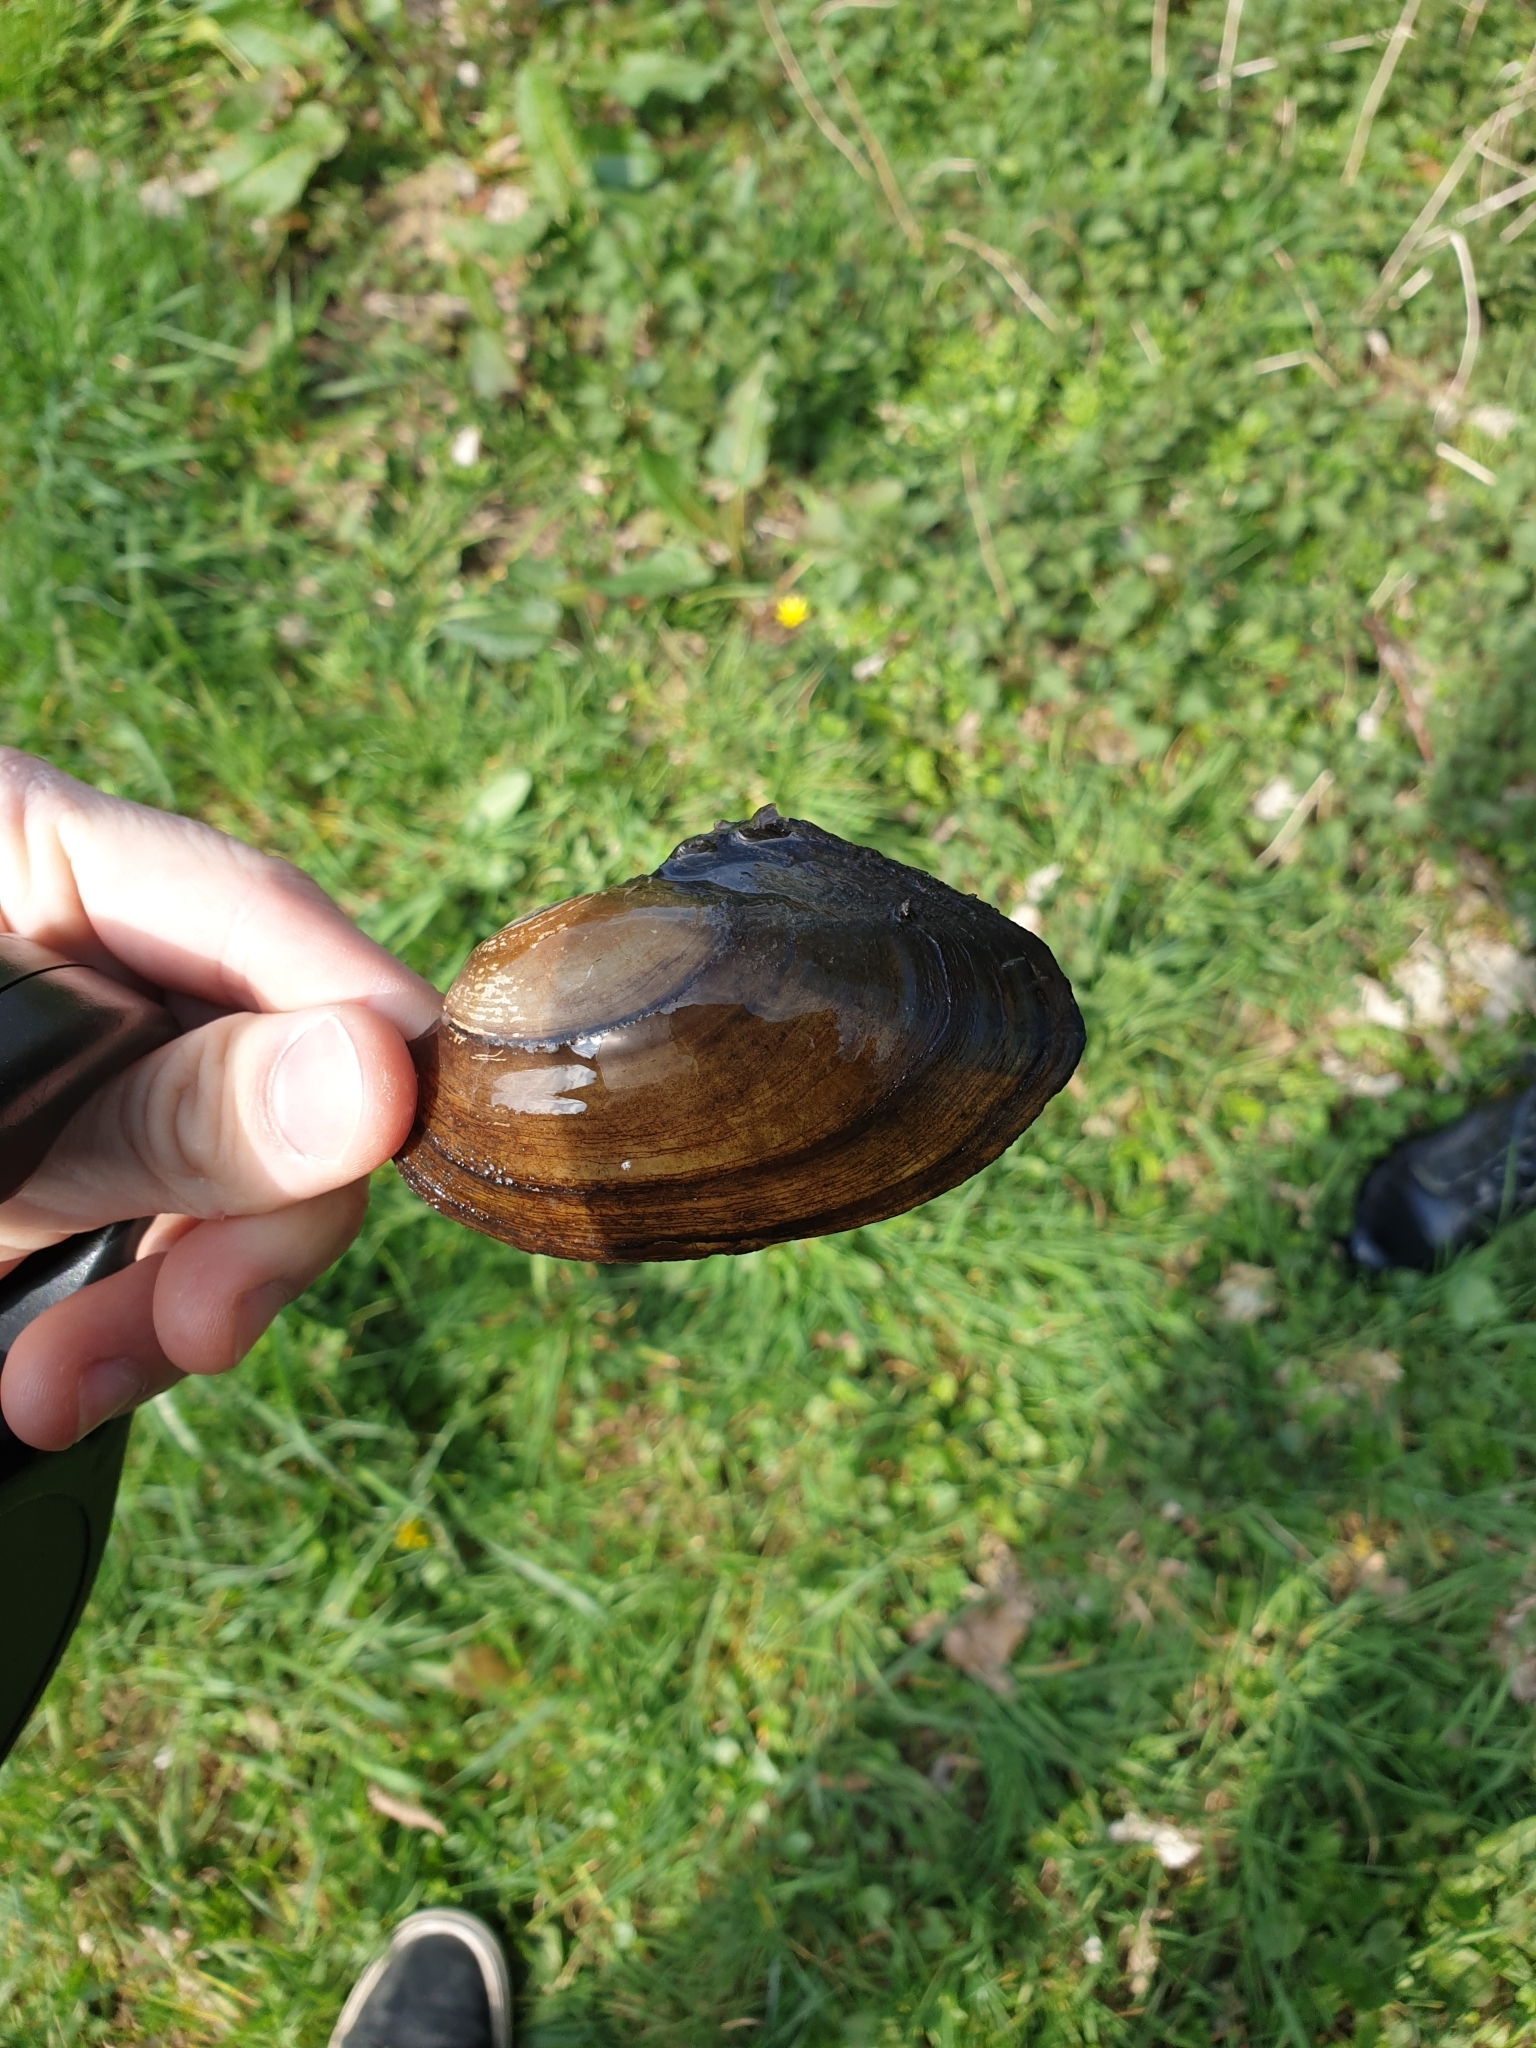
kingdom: Animalia
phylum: Mollusca
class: Bivalvia
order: Unionida
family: Unionidae
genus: Anodonta
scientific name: Anodonta anatina
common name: Duck mussel
